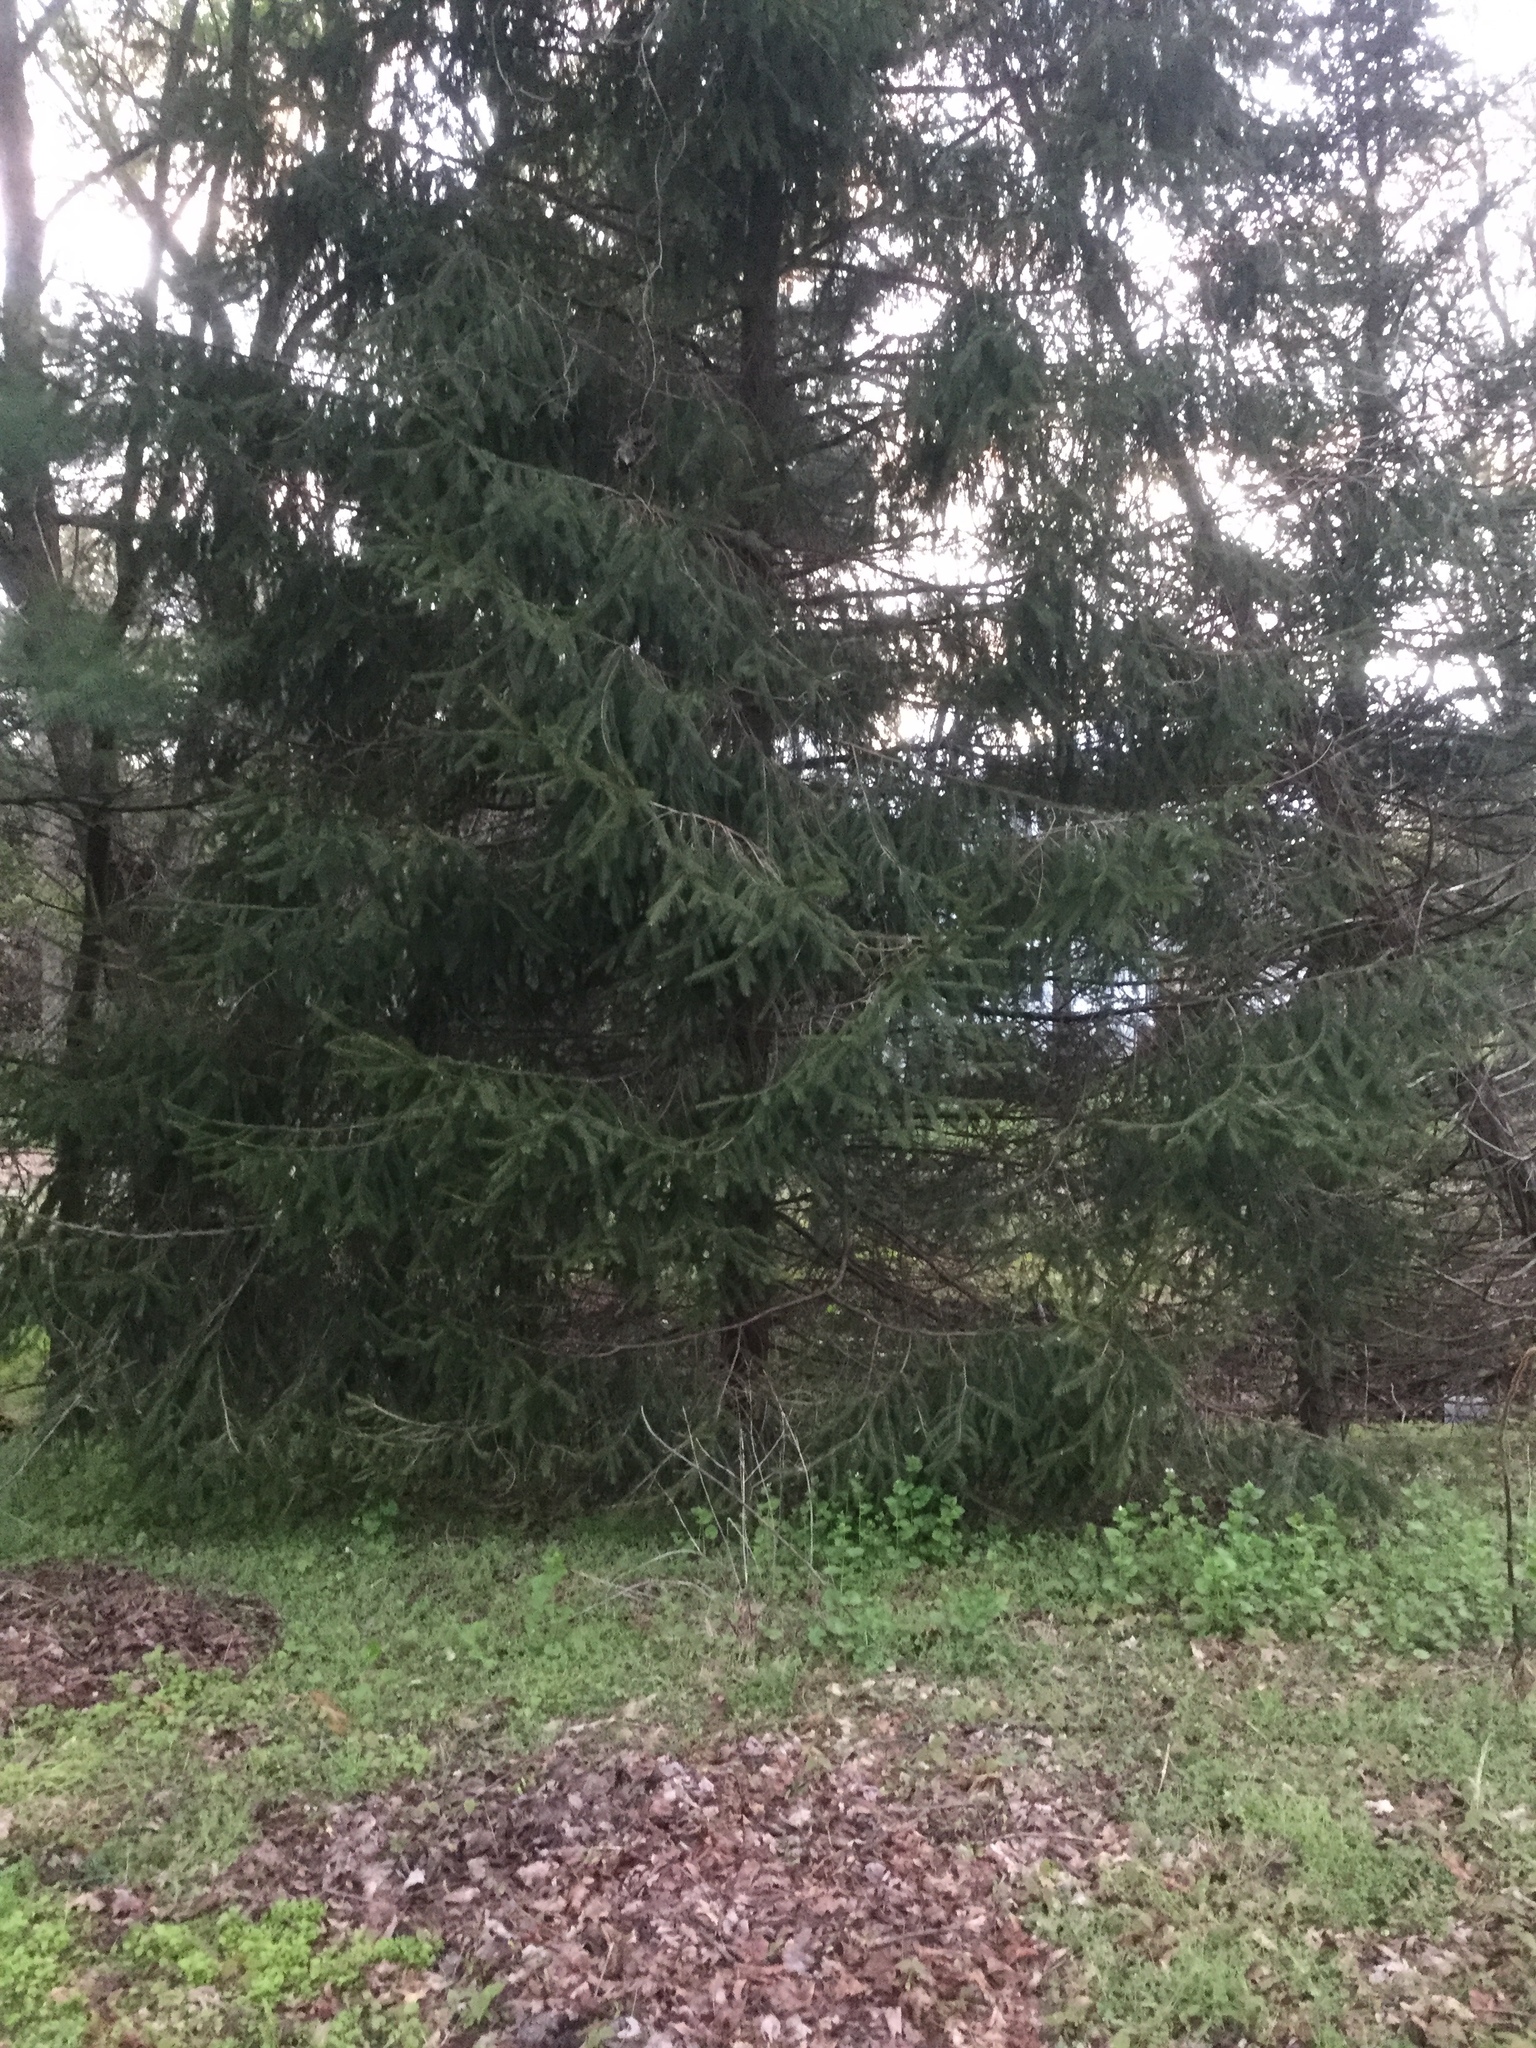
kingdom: Plantae
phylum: Tracheophyta
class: Pinopsida
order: Pinales
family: Pinaceae
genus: Picea
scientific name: Picea abies
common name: Norway spruce
